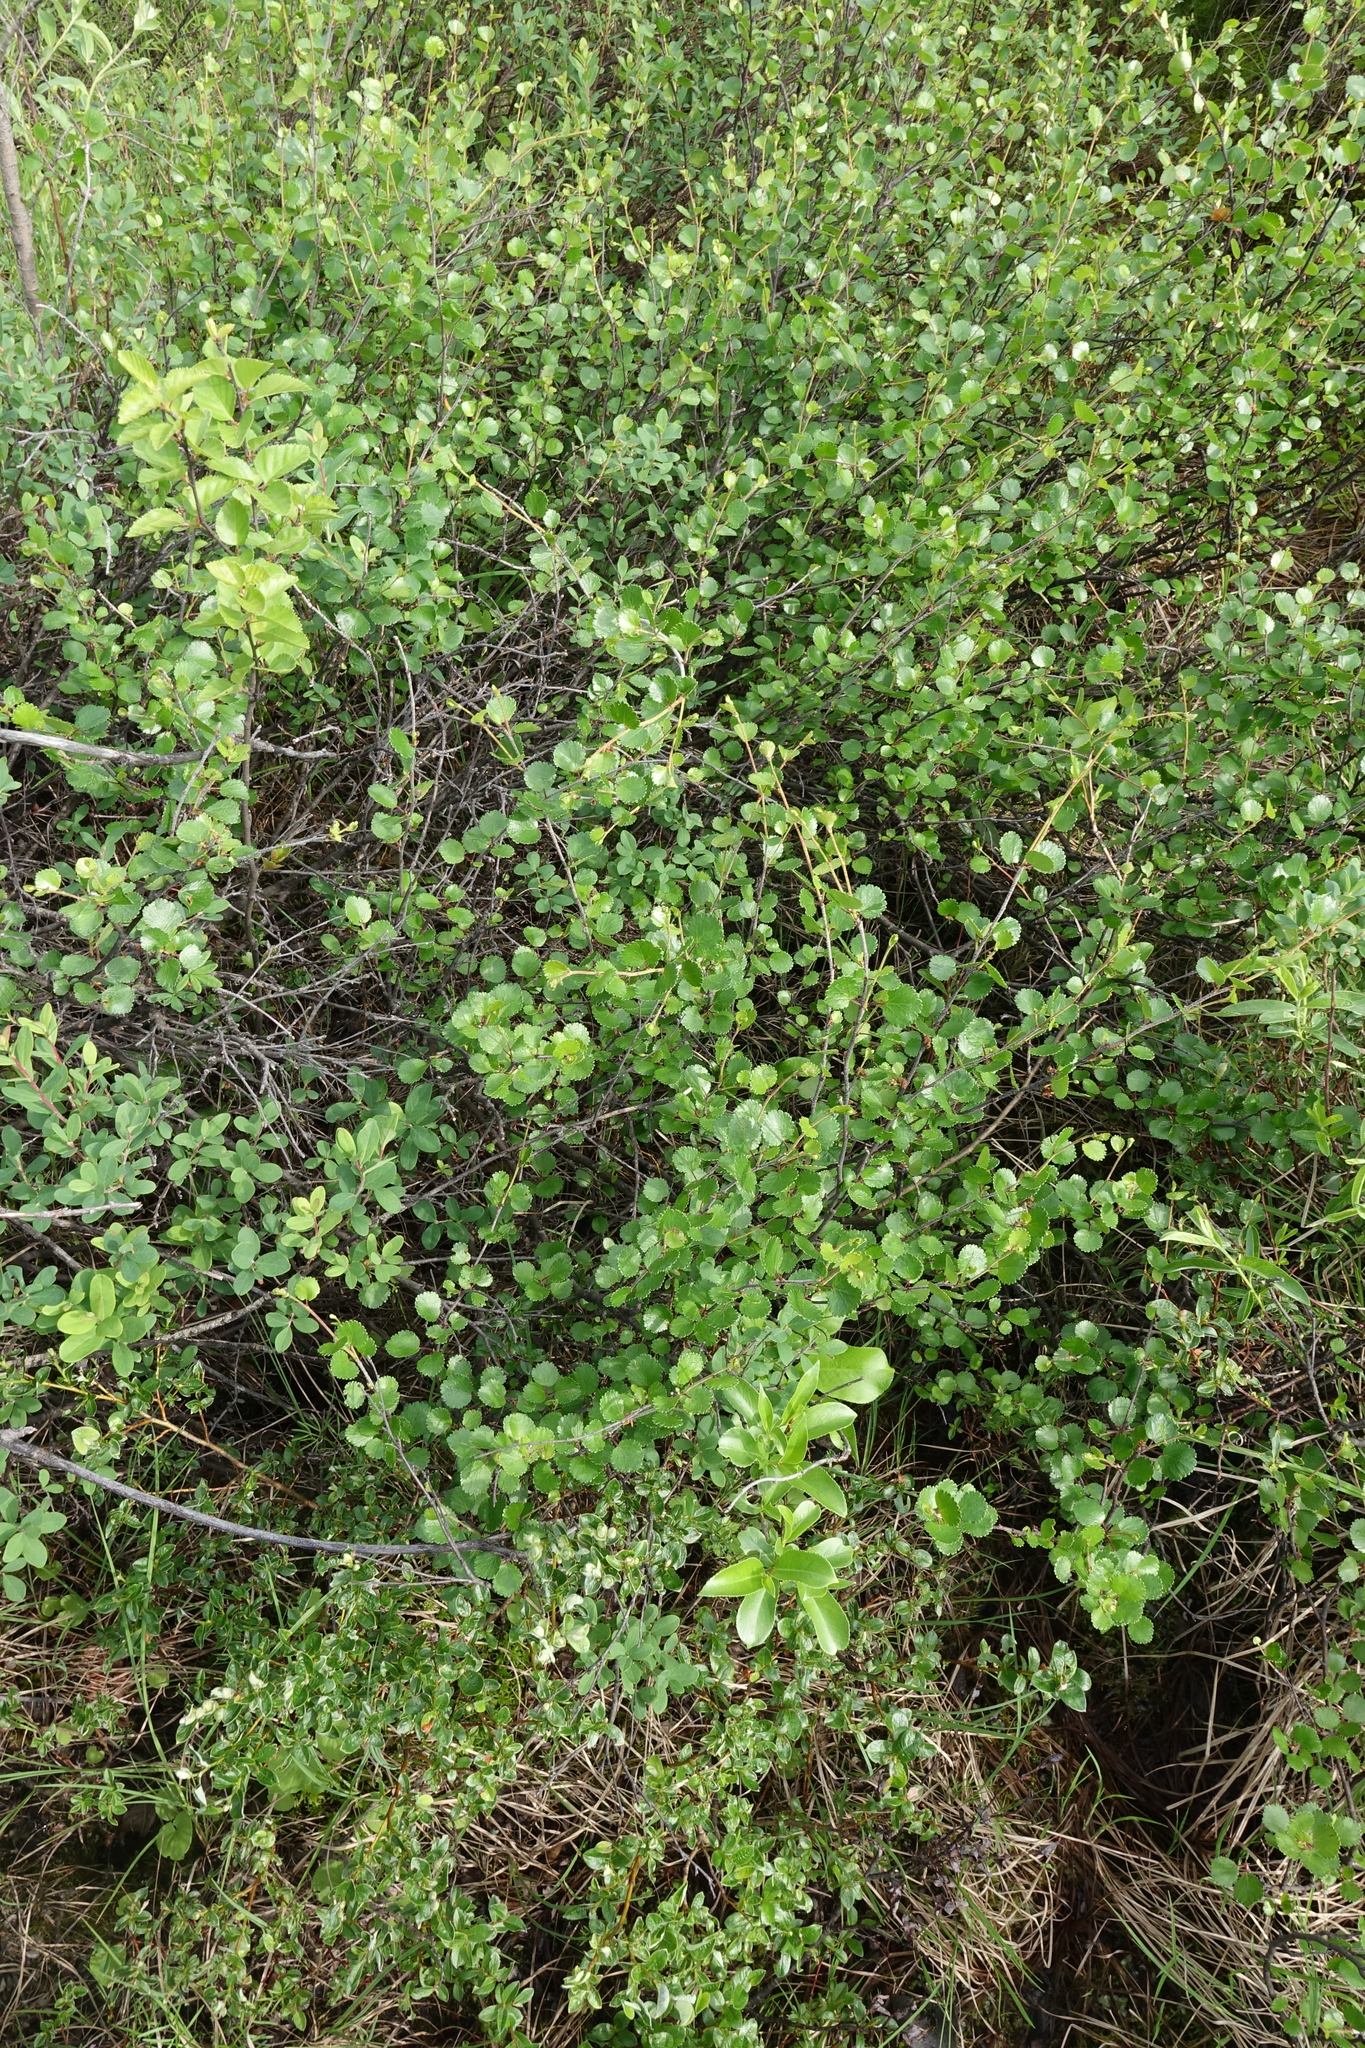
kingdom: Plantae
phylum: Tracheophyta
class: Magnoliopsida
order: Fagales
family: Betulaceae
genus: Betula
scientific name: Betula glandulosa
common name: Dwarf birch
